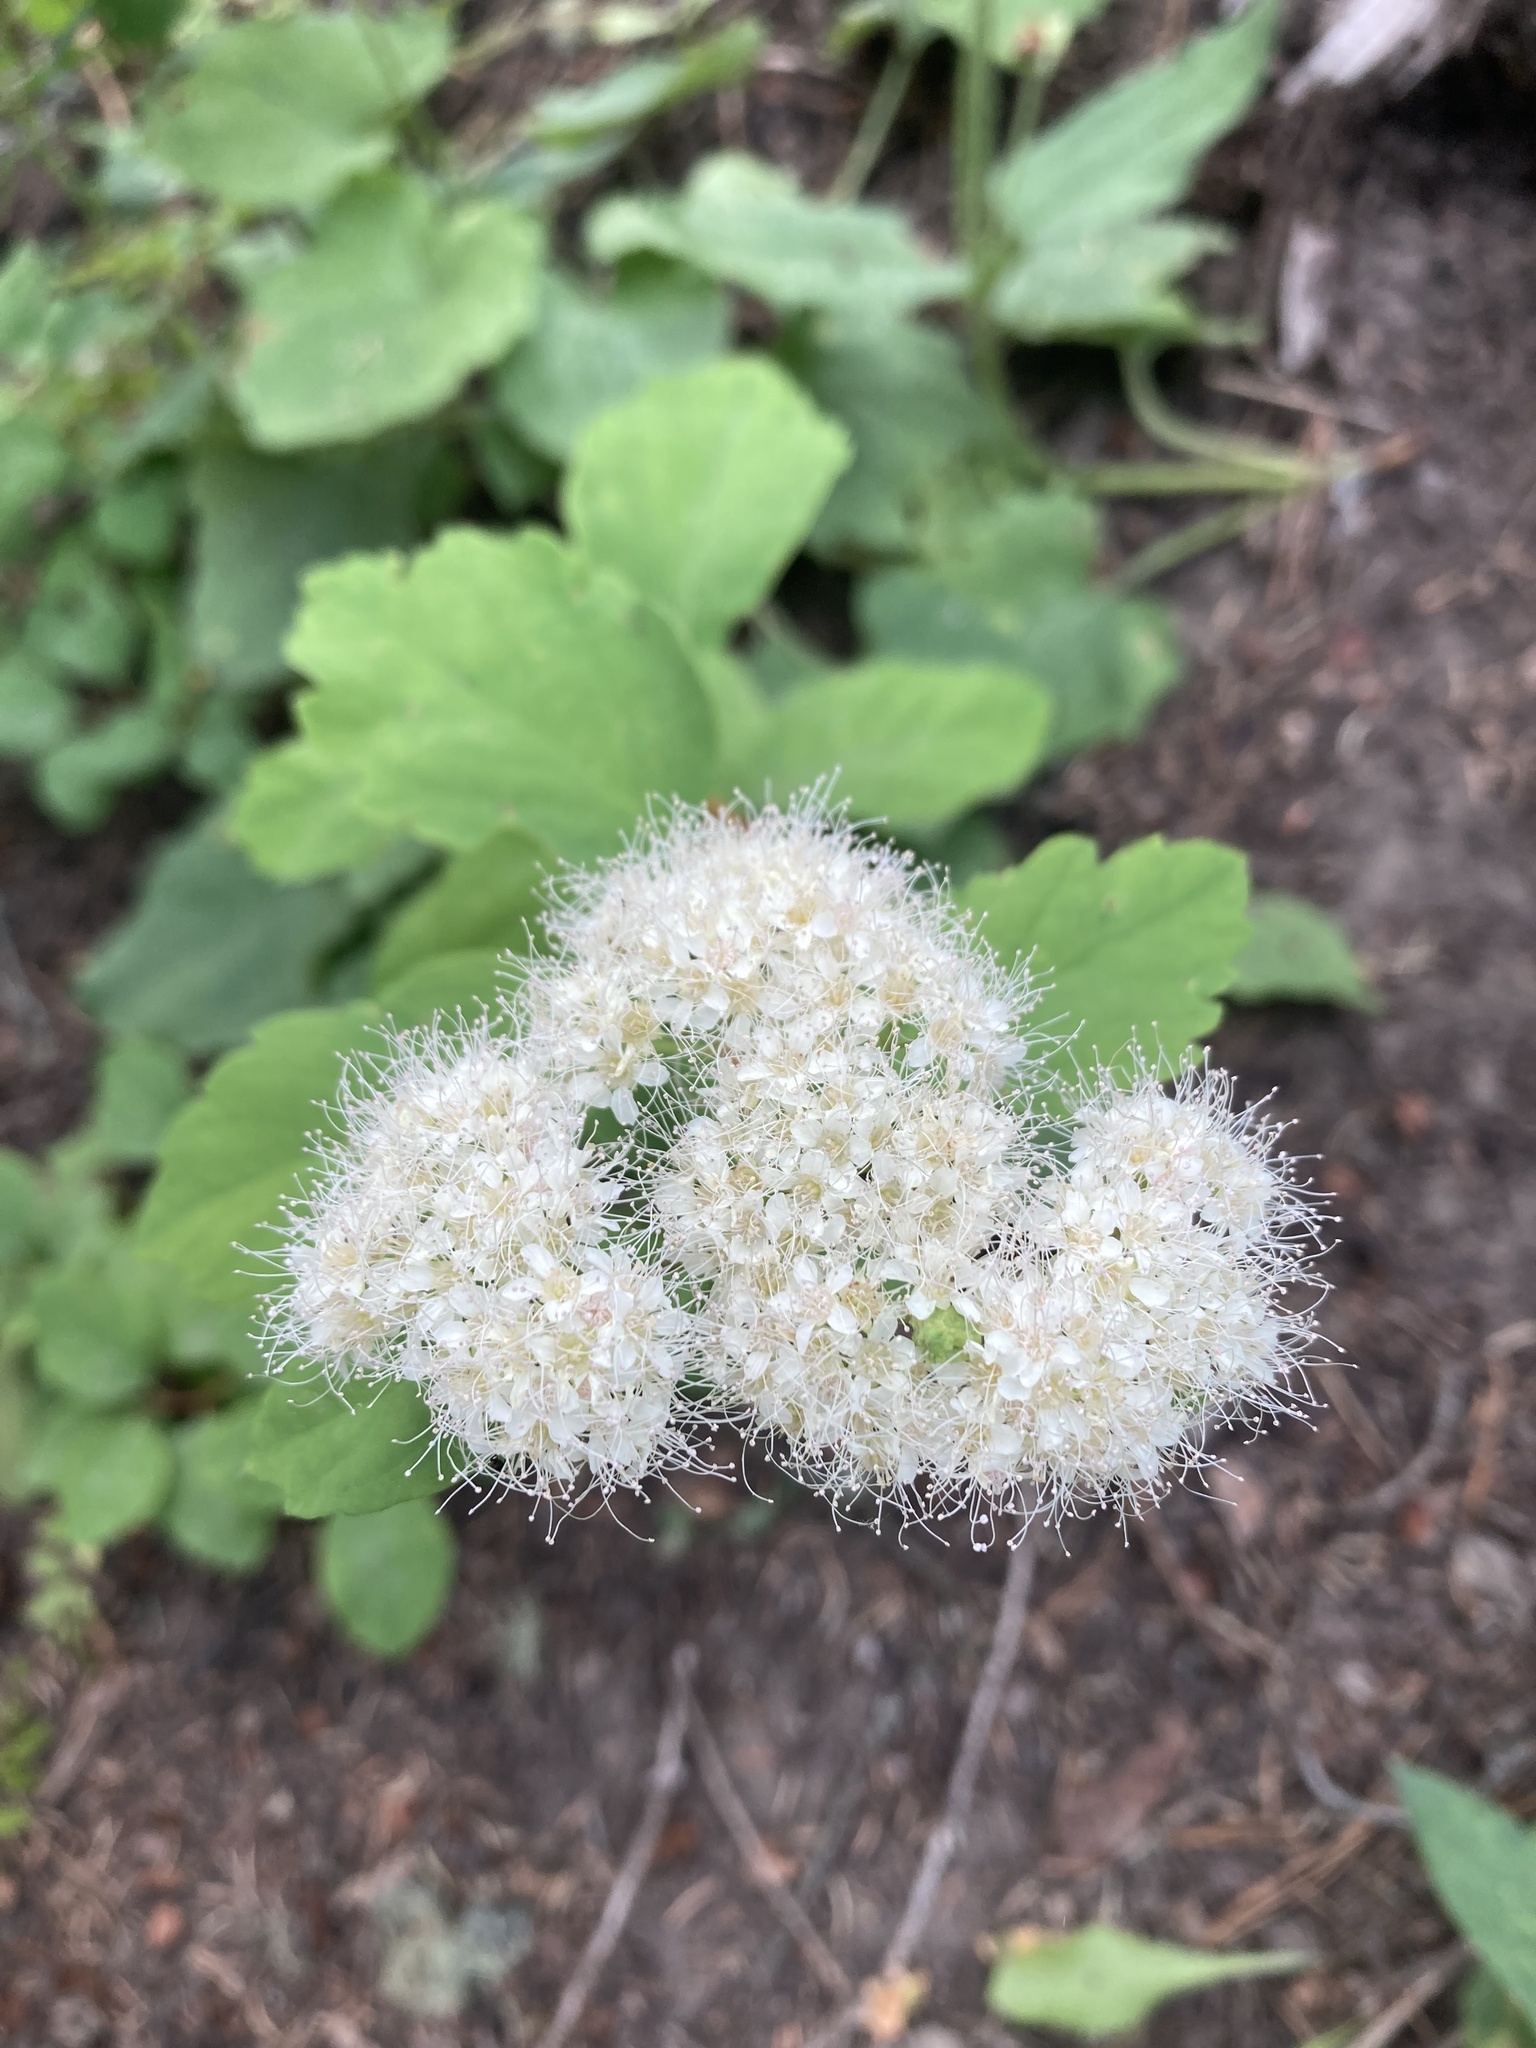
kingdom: Plantae
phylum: Tracheophyta
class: Magnoliopsida
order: Rosales
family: Rosaceae
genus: Spiraea
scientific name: Spiraea lucida
